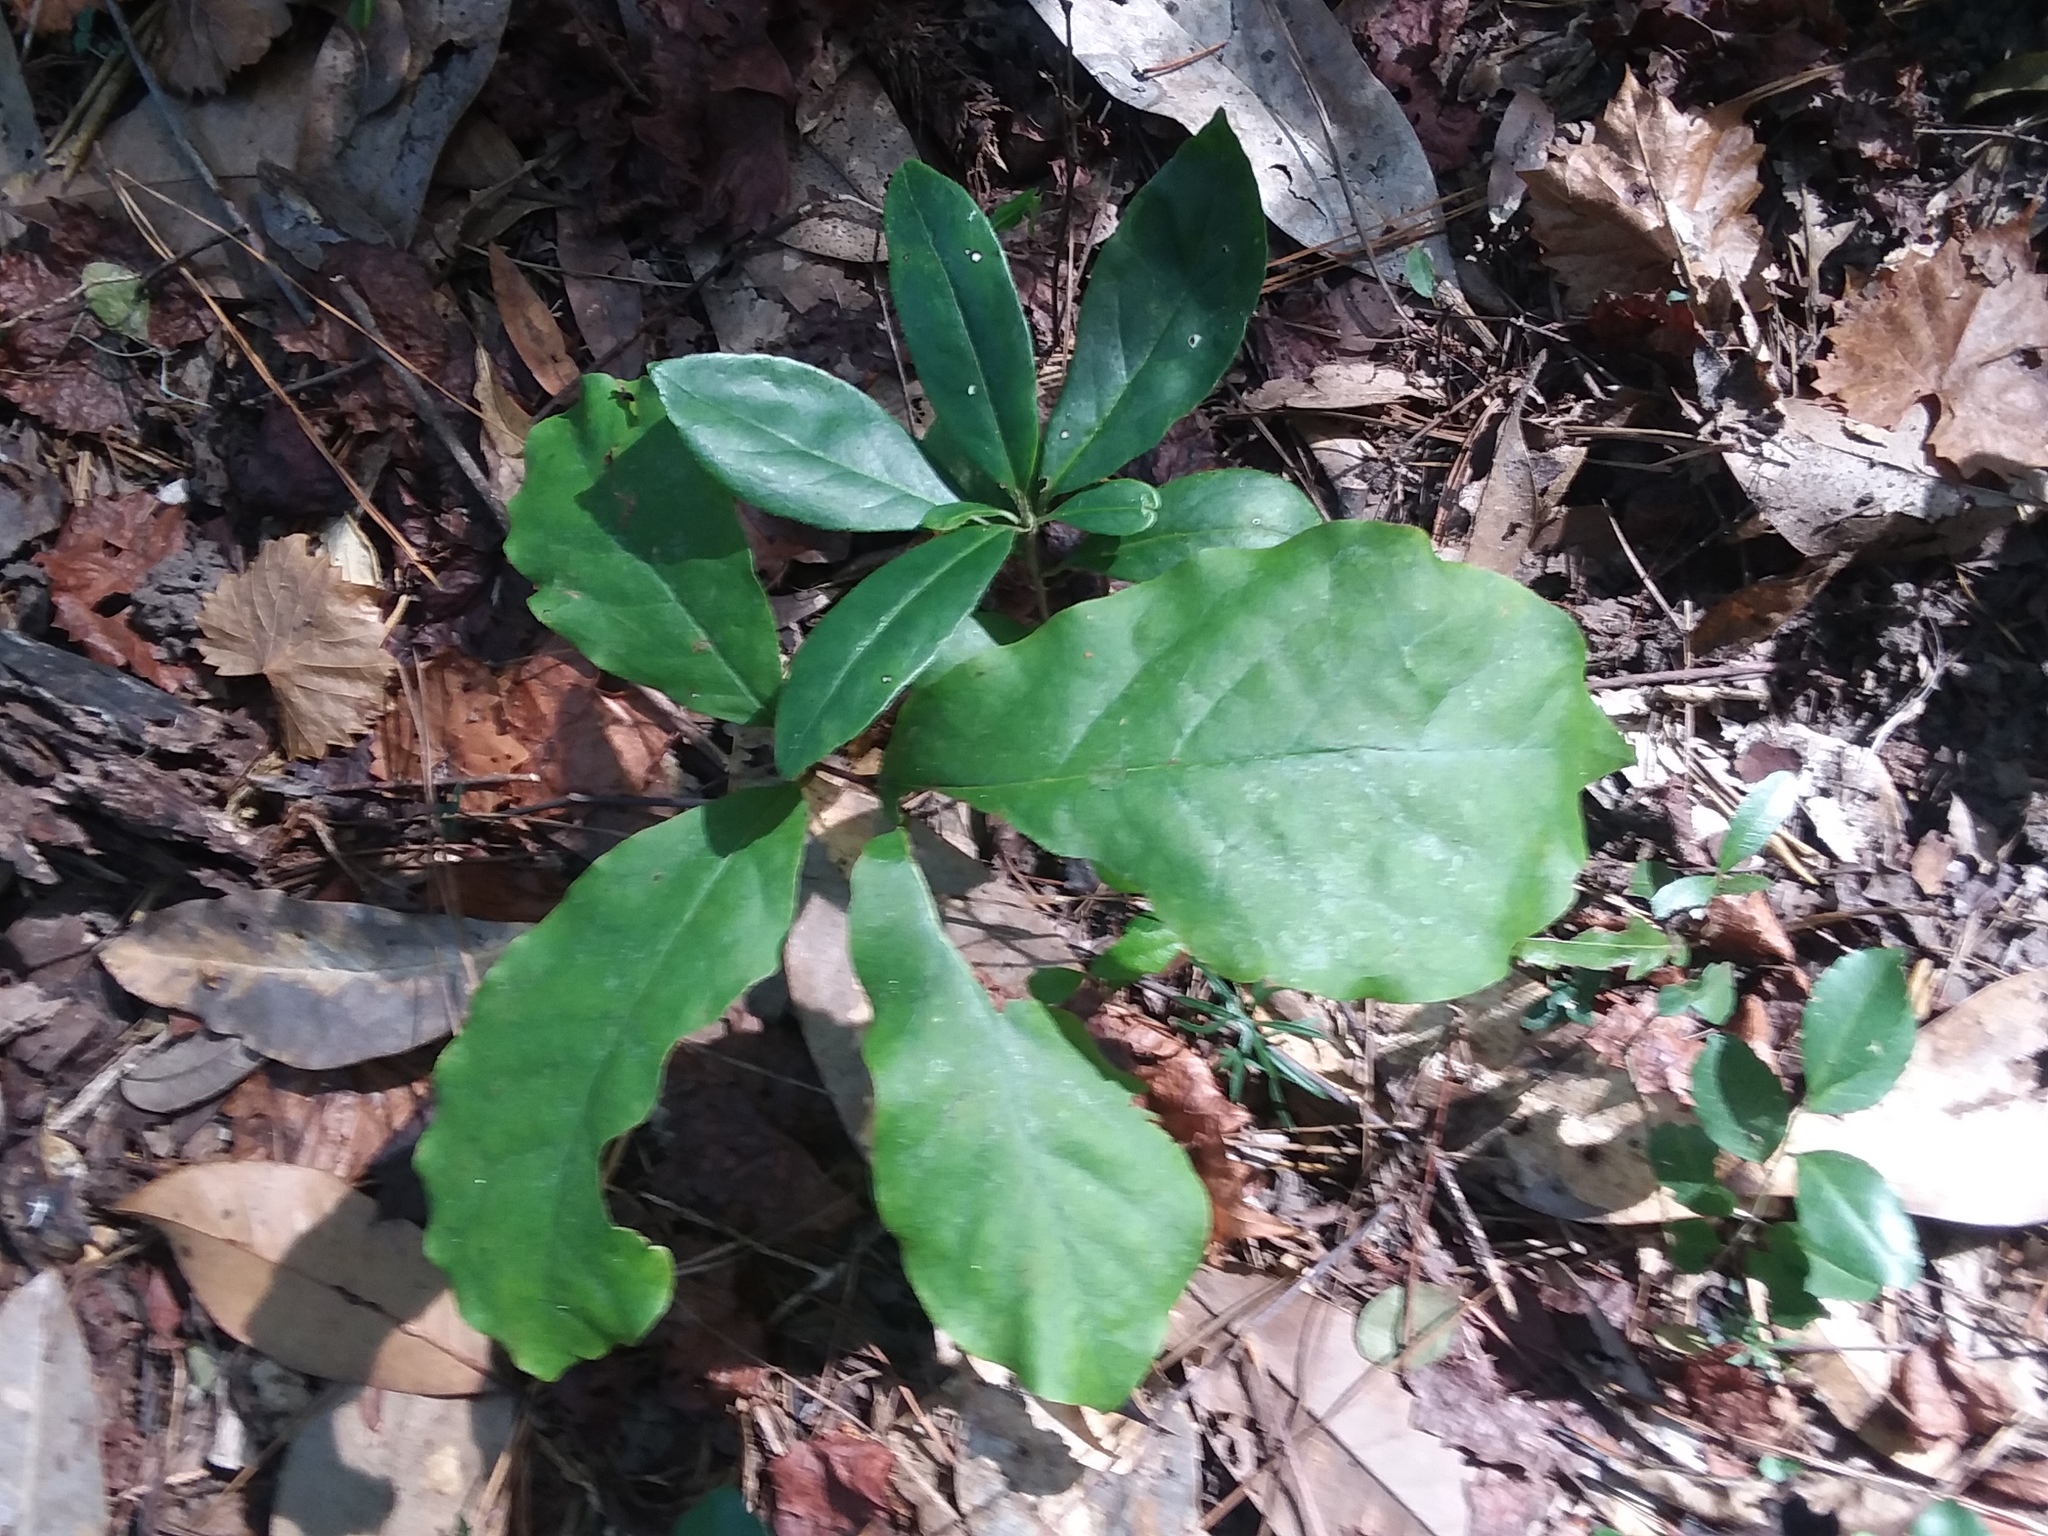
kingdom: Plantae
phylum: Tracheophyta
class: Magnoliopsida
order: Magnoliales
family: Annonaceae
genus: Asimina
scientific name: Asimina parviflora
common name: Dwarf pawpaw
